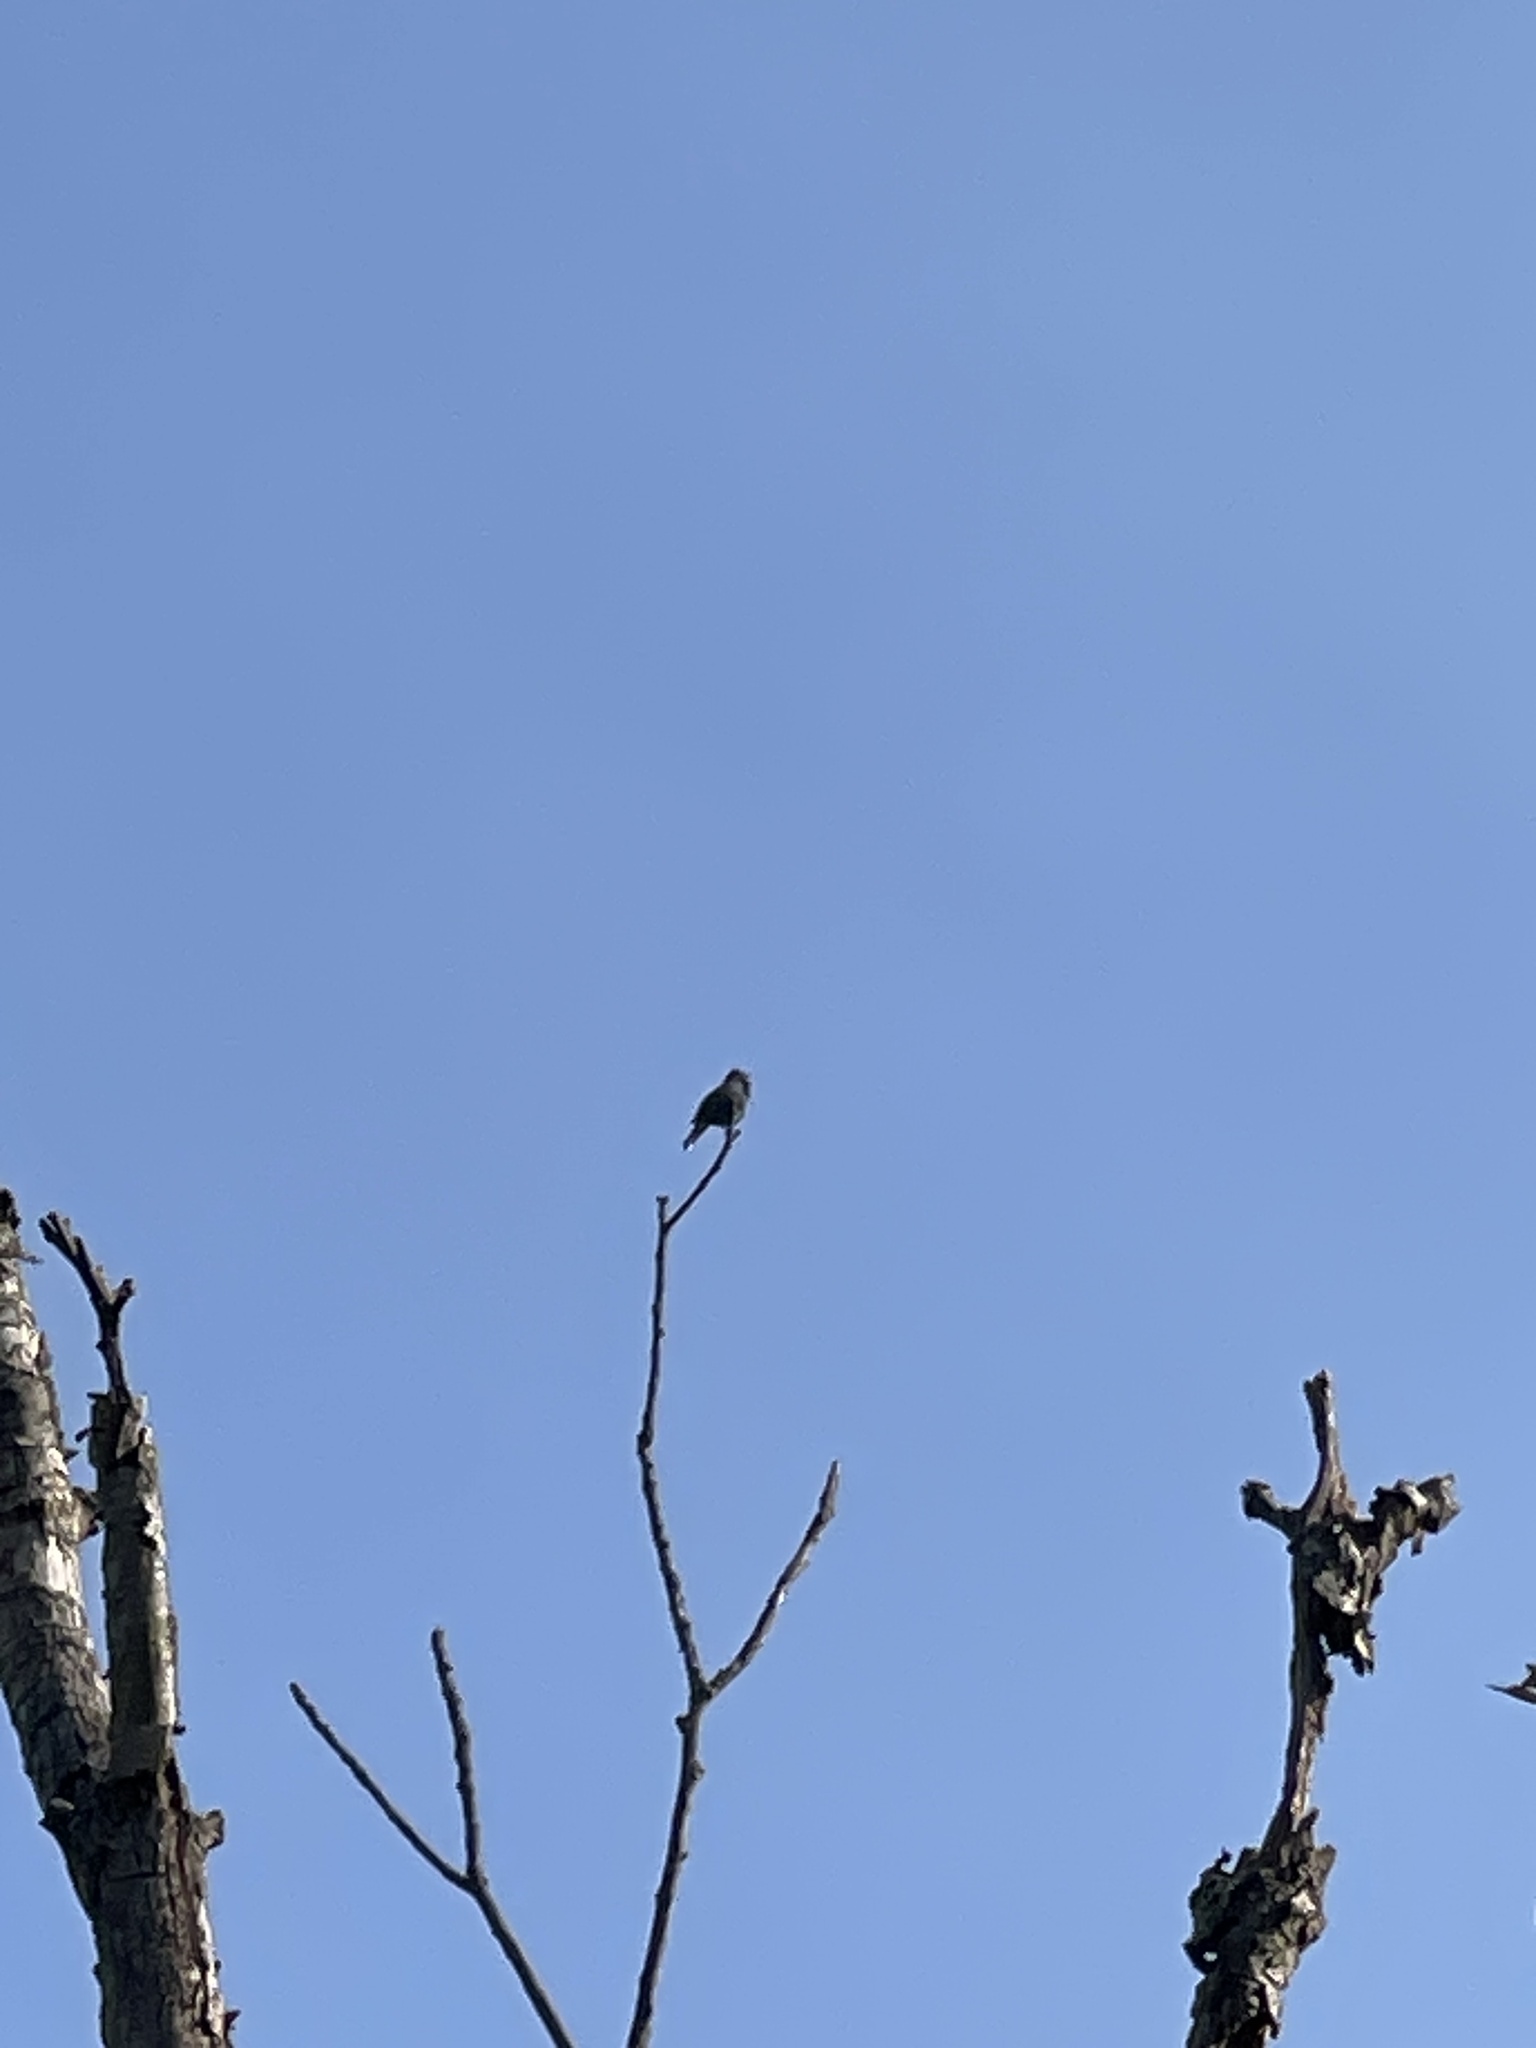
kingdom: Animalia
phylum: Chordata
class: Aves
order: Passeriformes
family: Cardinalidae
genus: Passerina
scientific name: Passerina cyanea
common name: Indigo bunting
